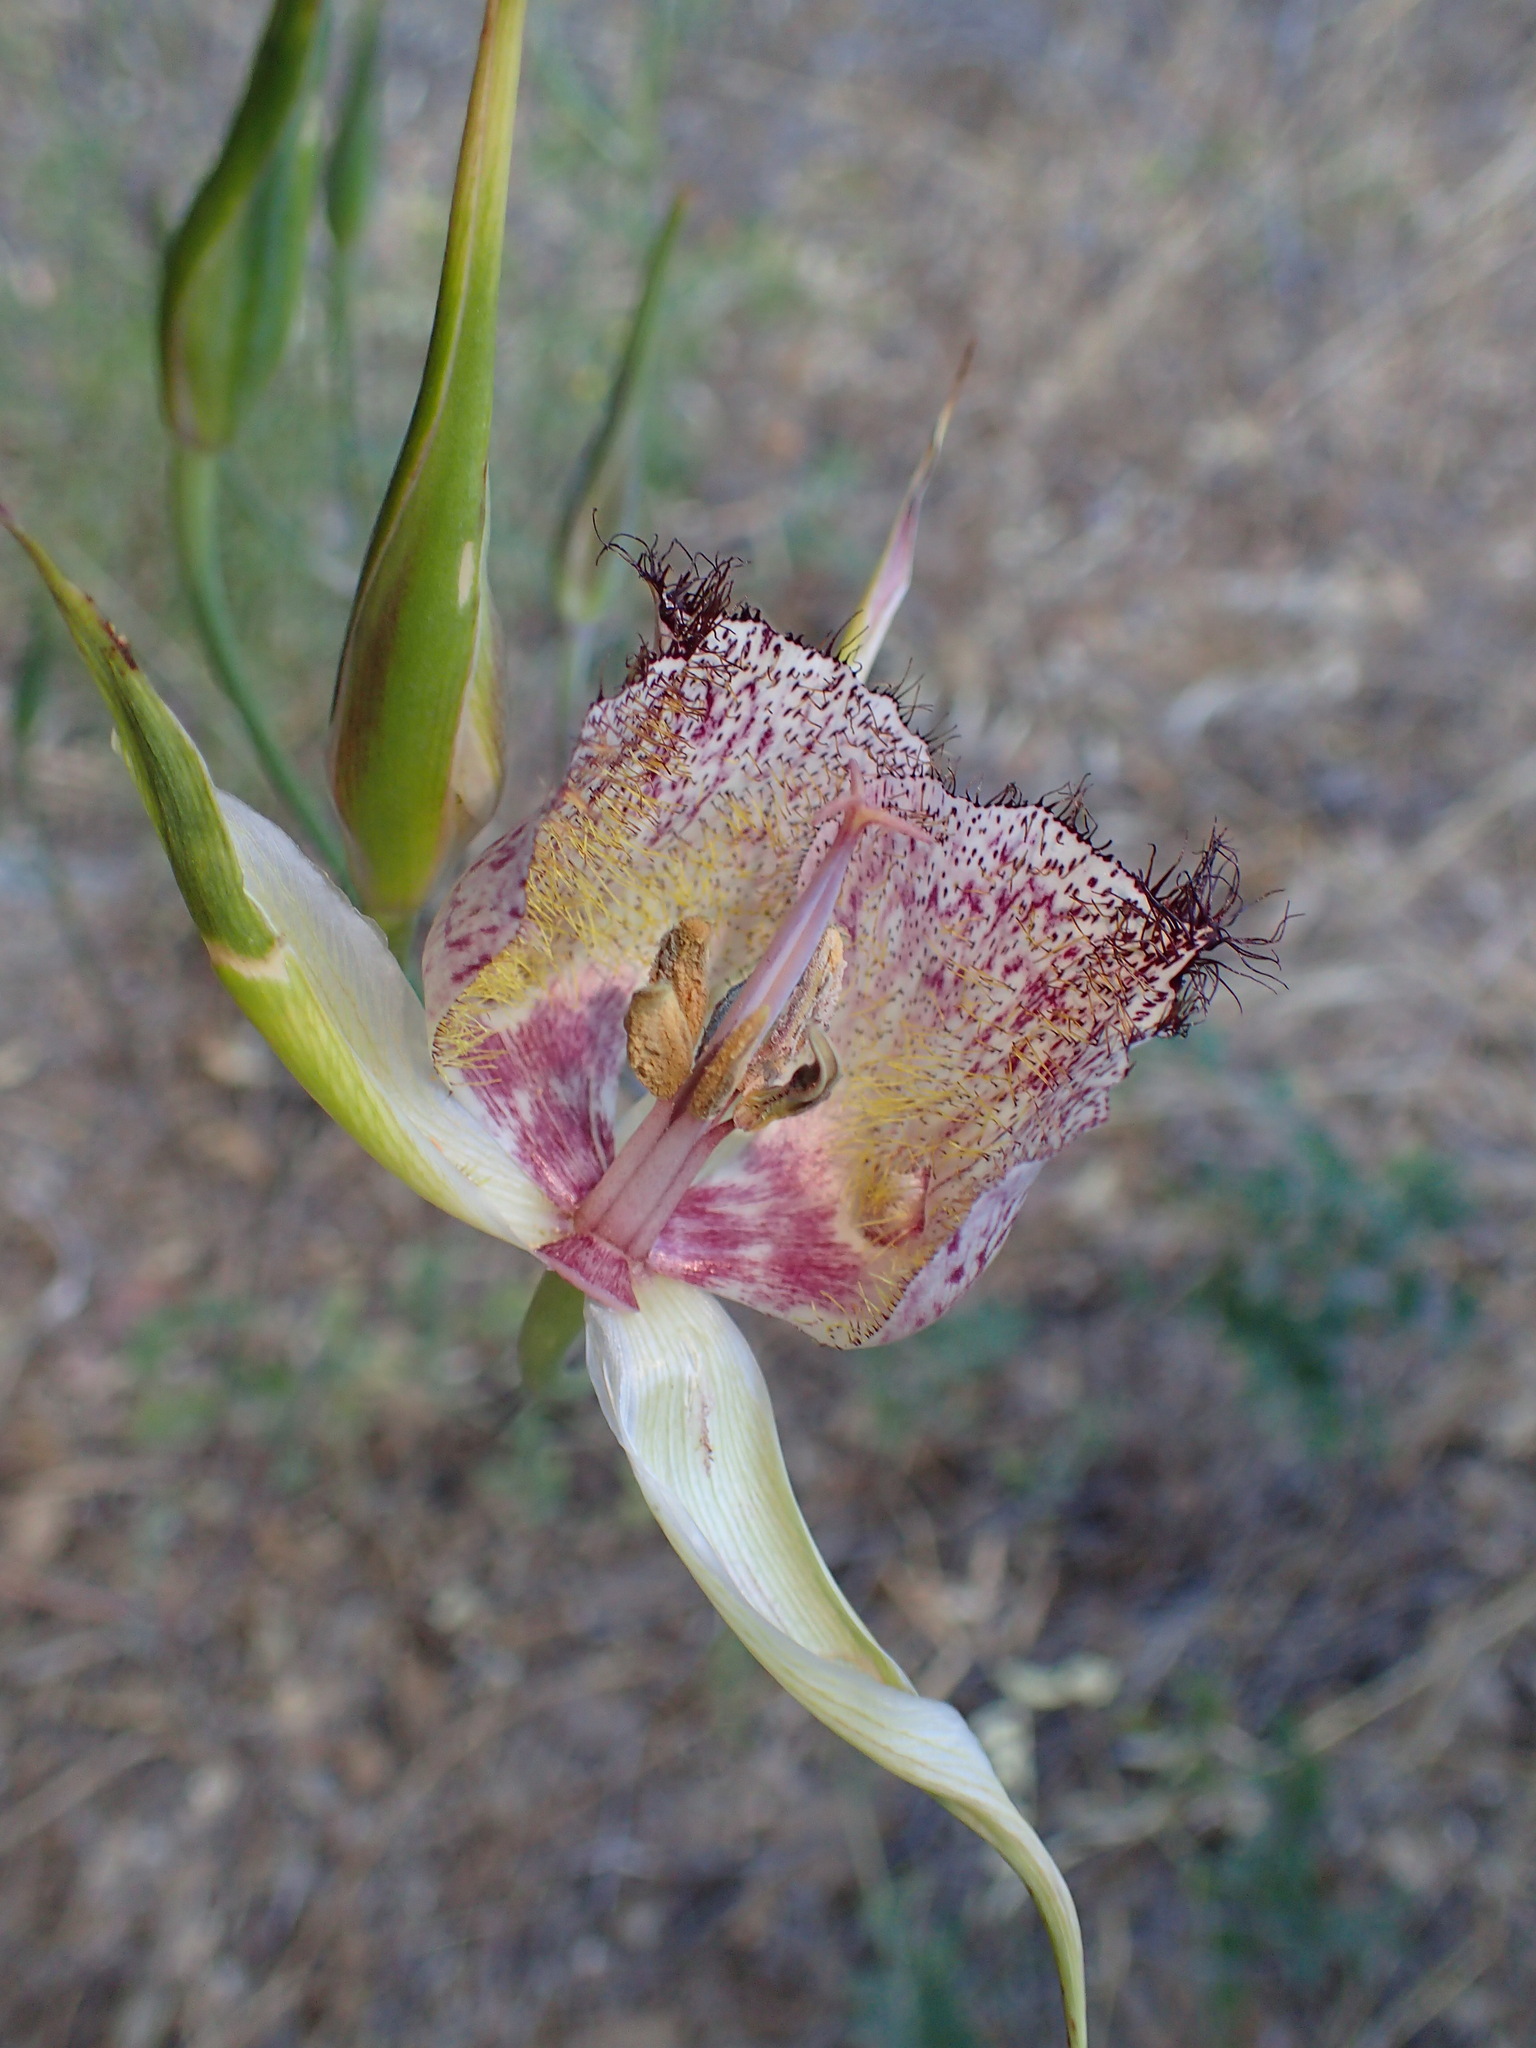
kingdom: Plantae
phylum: Tracheophyta
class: Liliopsida
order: Liliales
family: Liliaceae
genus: Calochortus
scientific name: Calochortus fimbriatus
